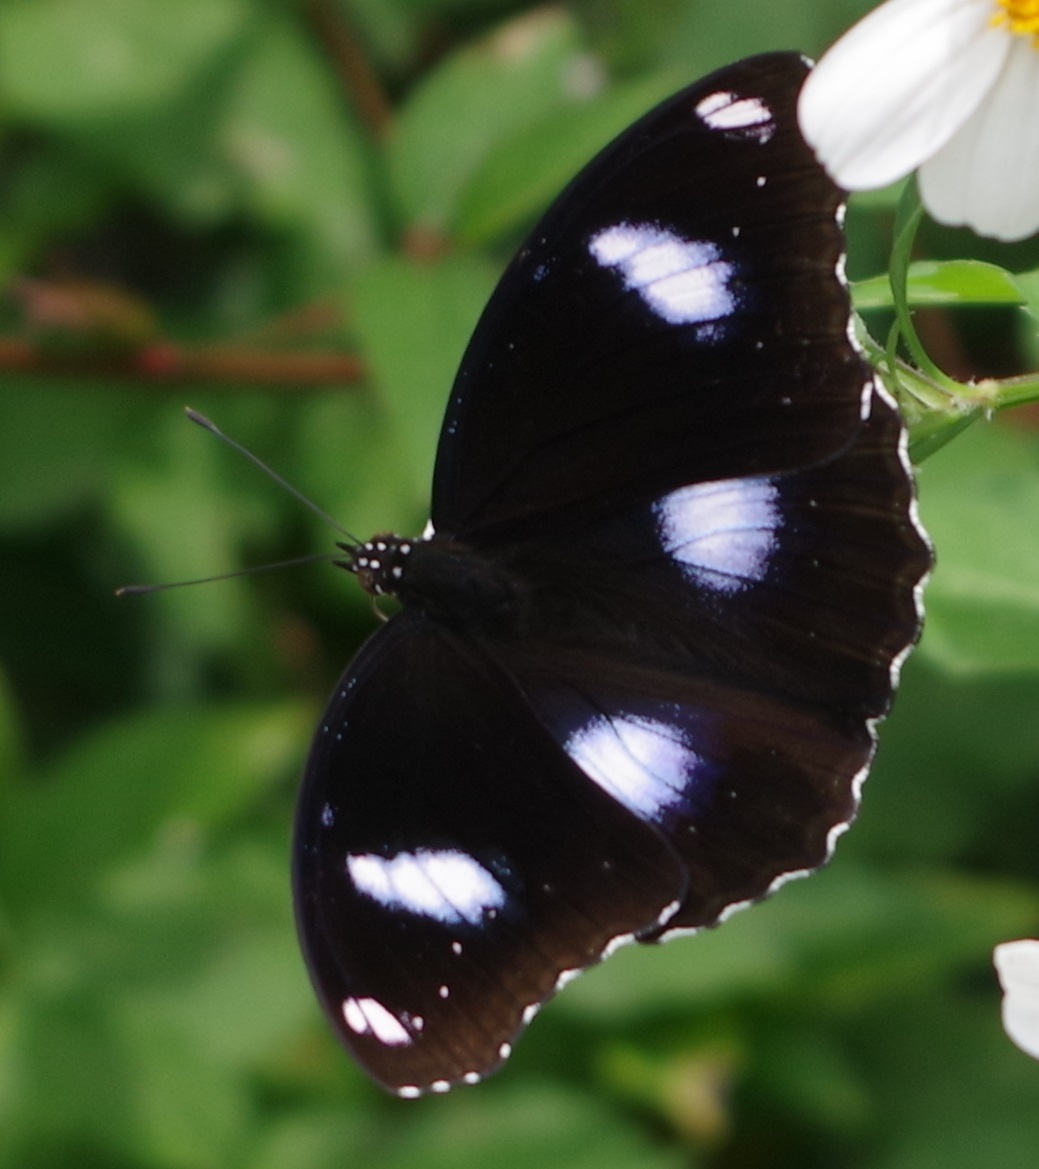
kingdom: Animalia
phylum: Arthropoda
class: Insecta
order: Lepidoptera
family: Nymphalidae
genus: Hypolimnas
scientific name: Hypolimnas bolina
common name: Great eggfly
